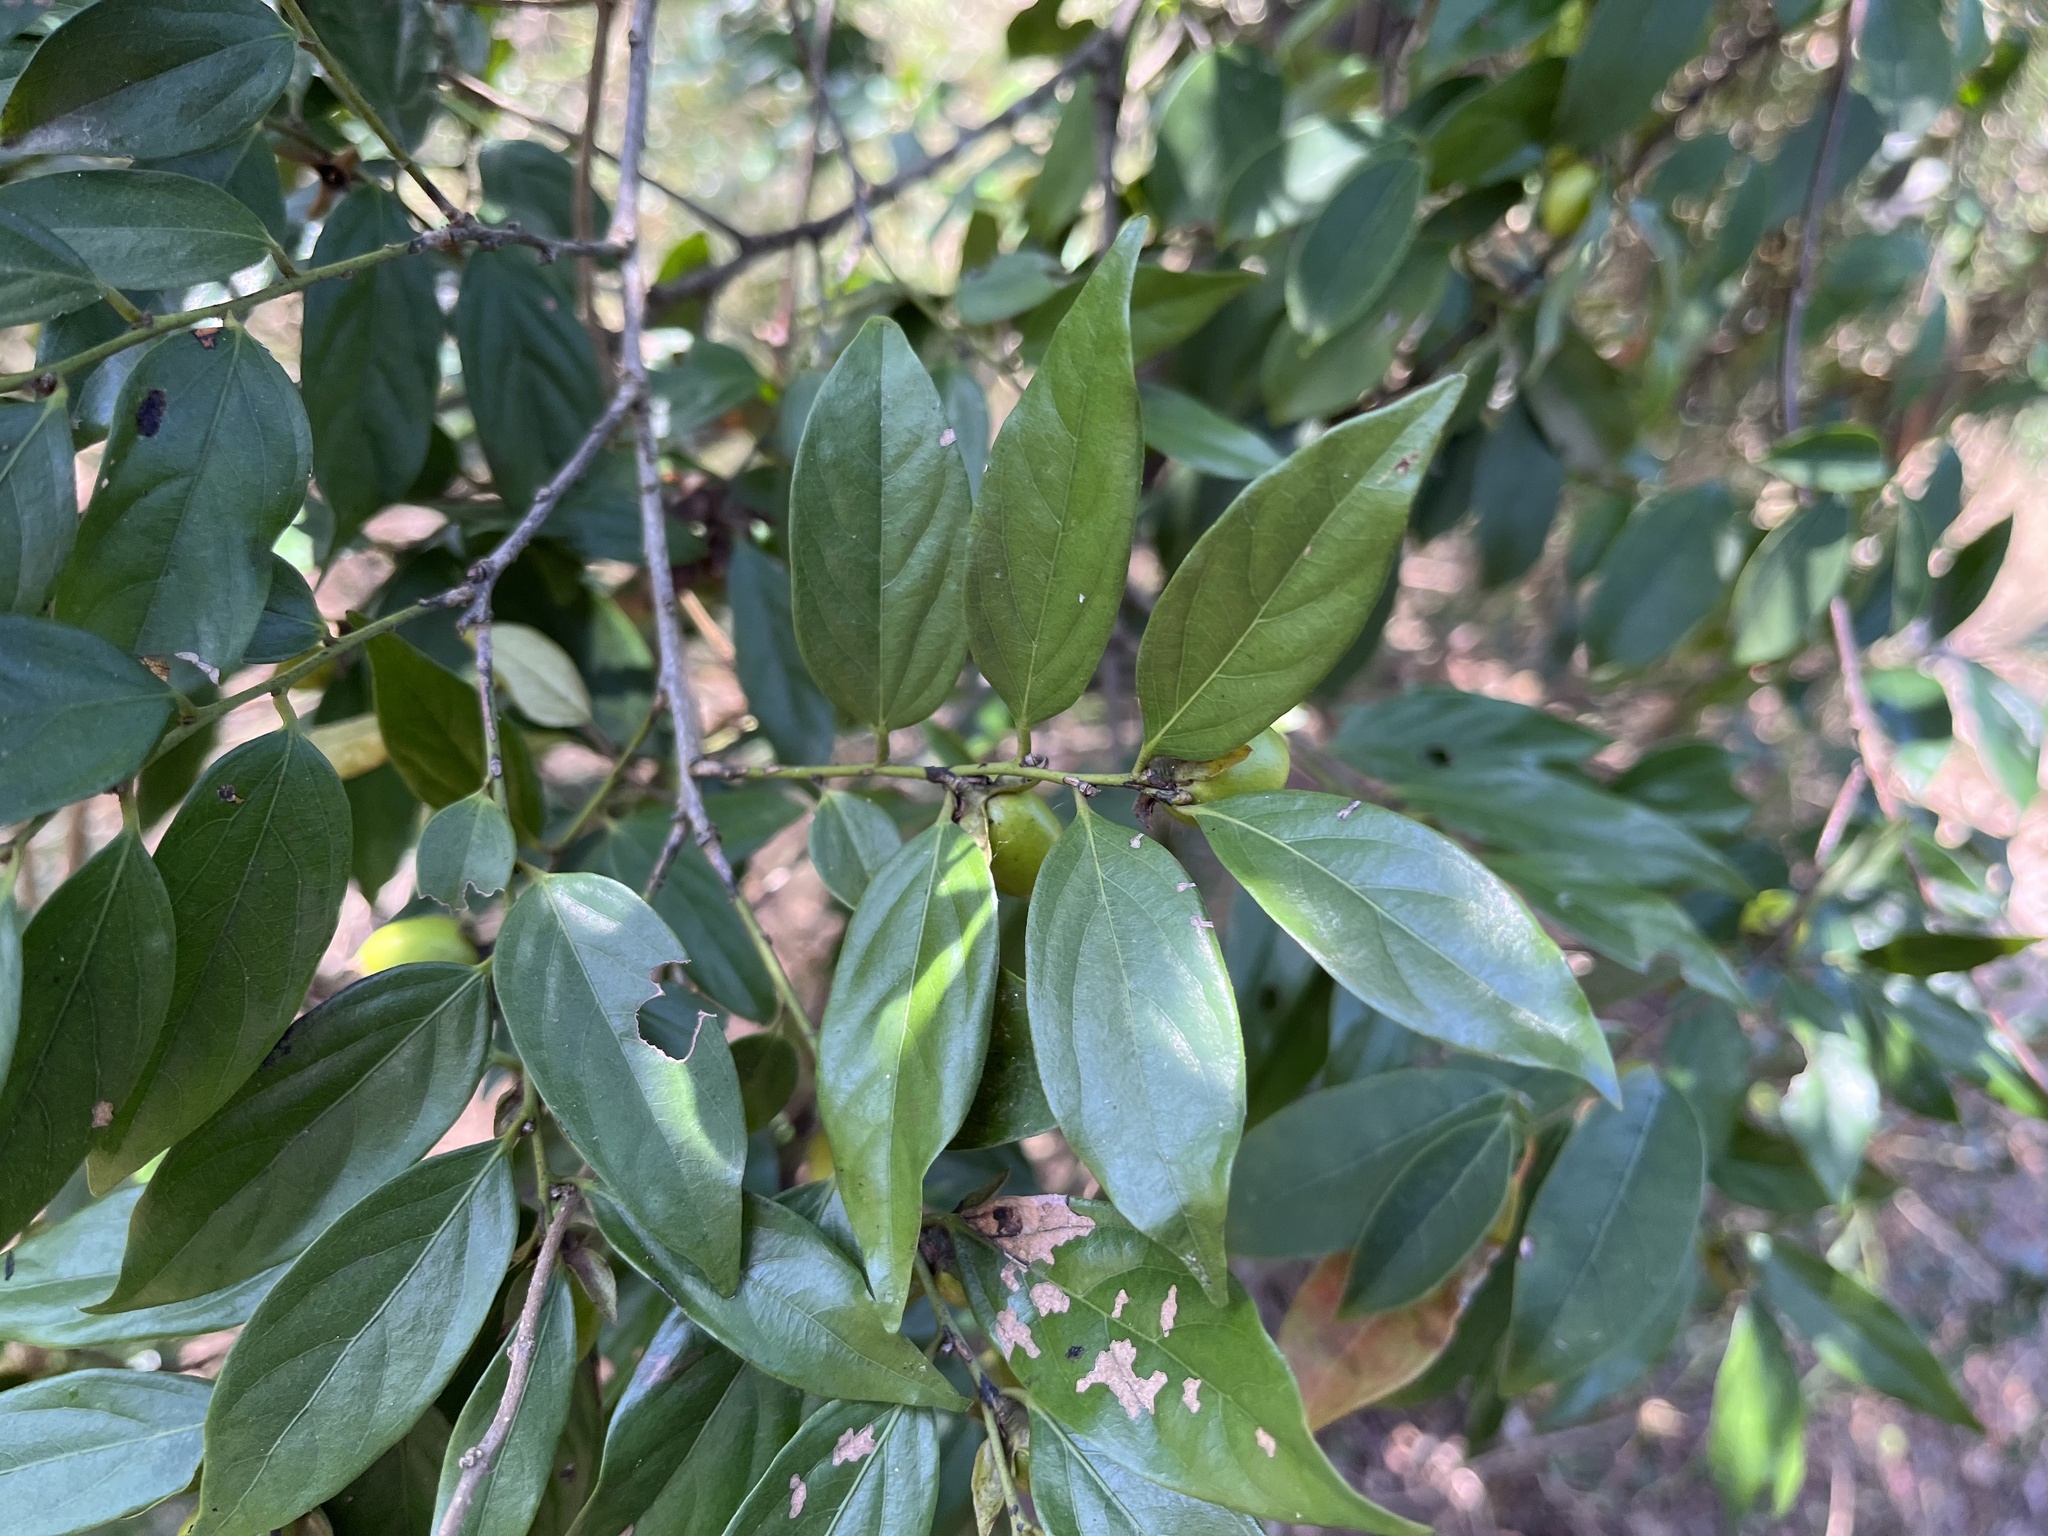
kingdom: Plantae
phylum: Tracheophyta
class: Magnoliopsida
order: Ericales
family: Ebenaceae
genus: Diospyros
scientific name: Diospyros eriantha
